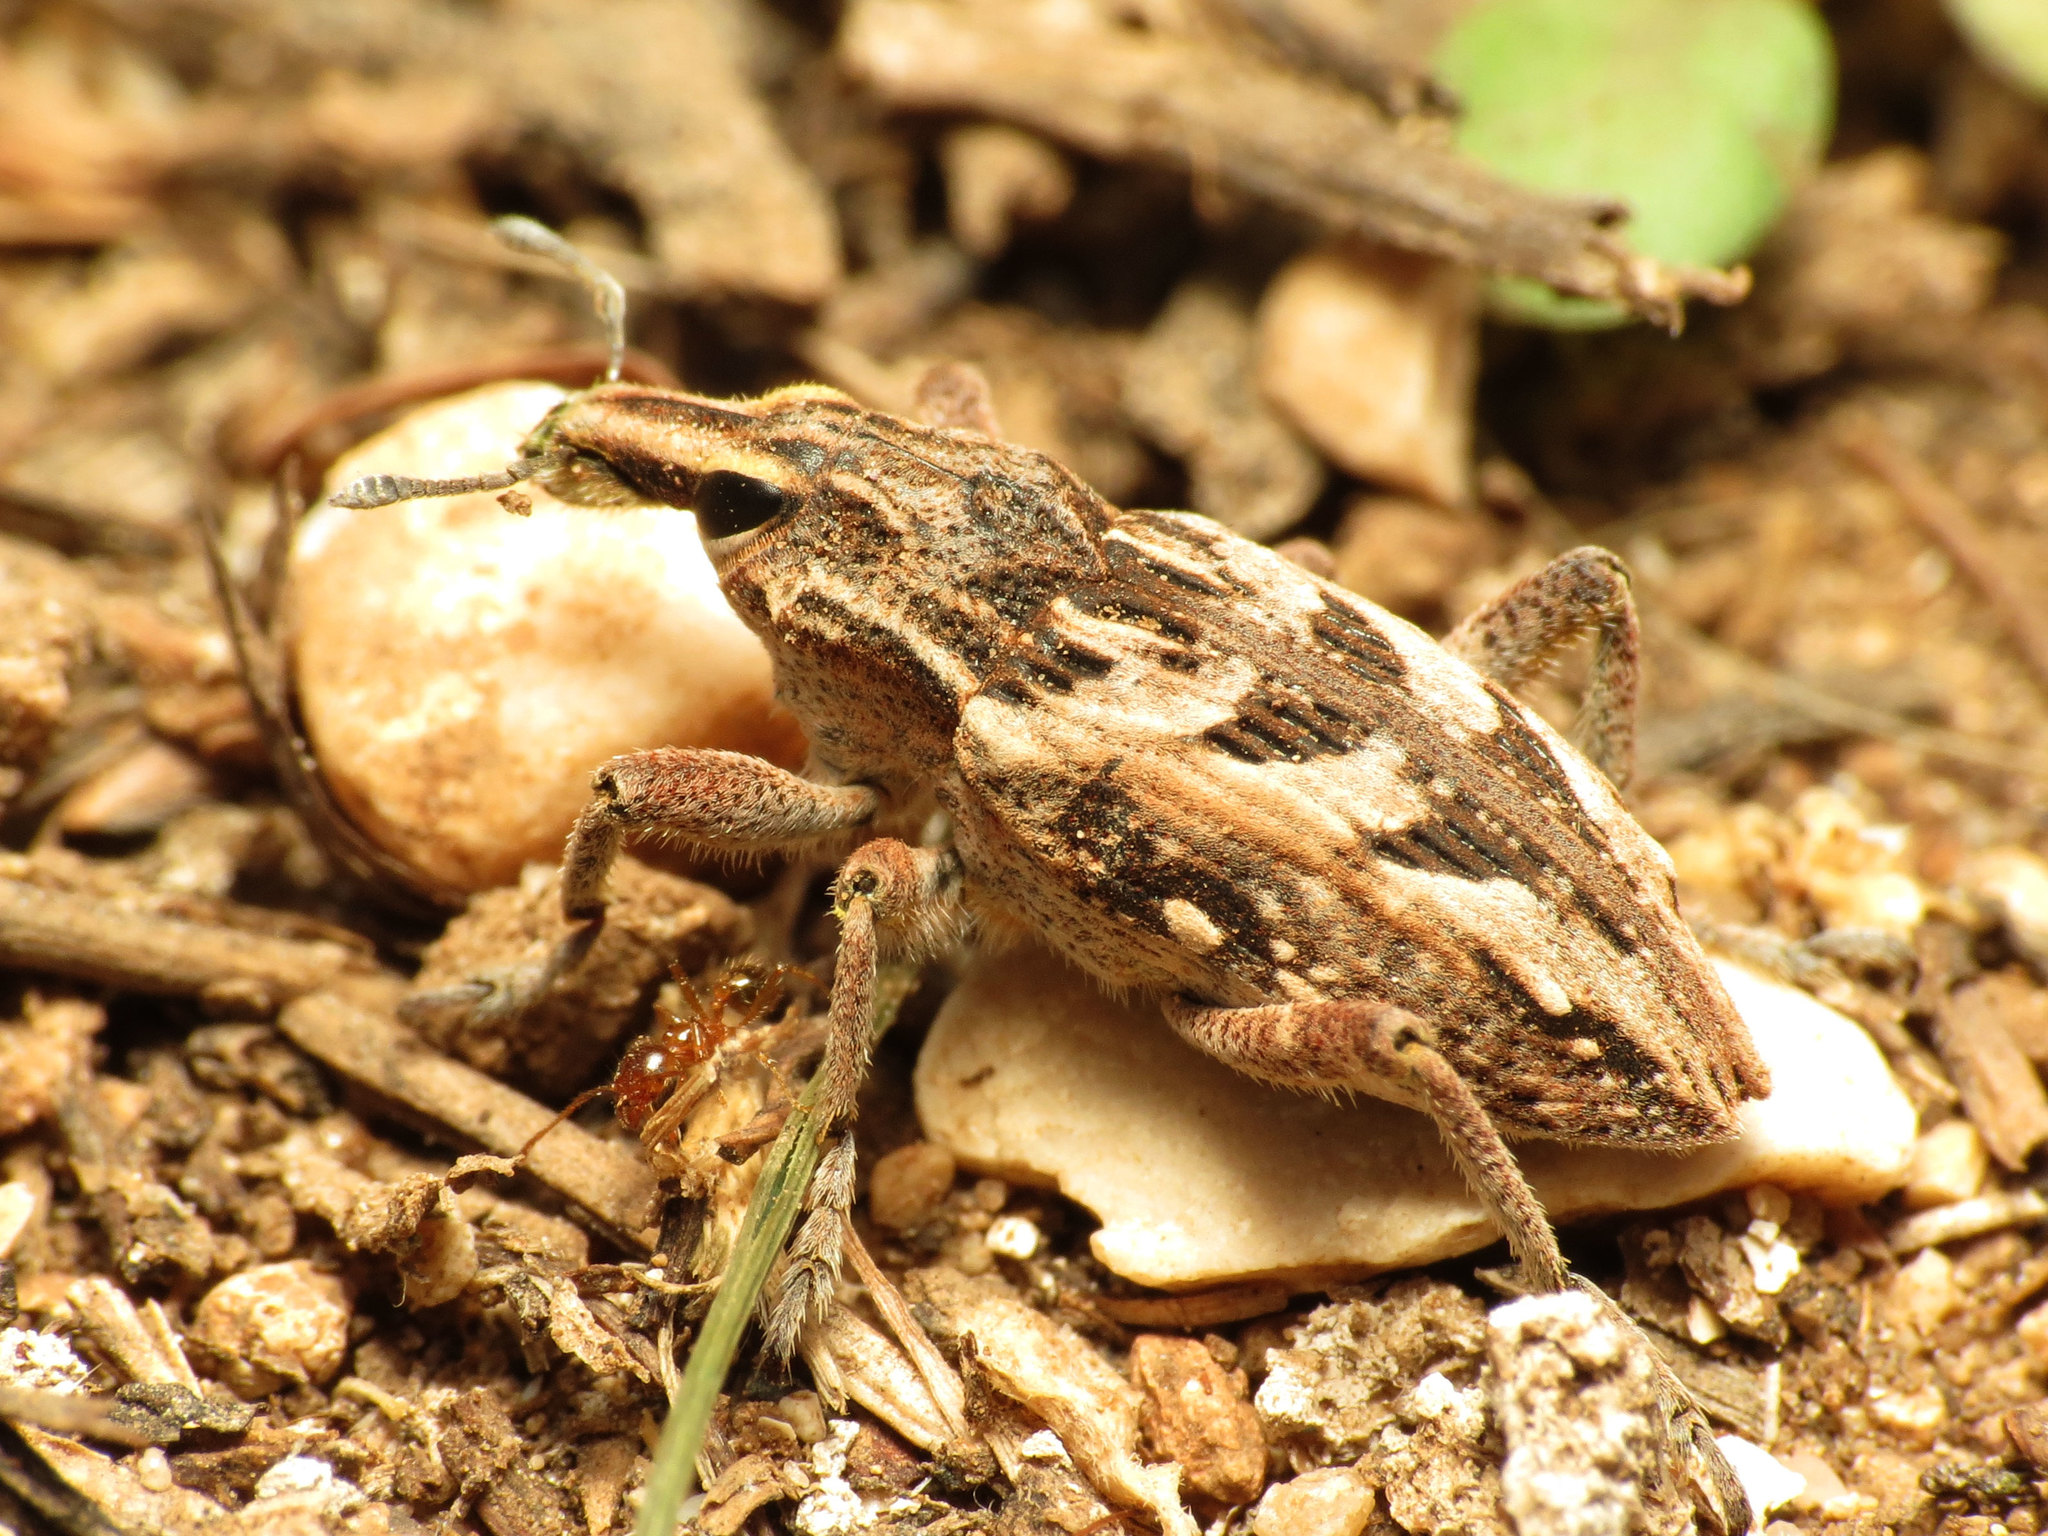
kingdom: Animalia
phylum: Arthropoda
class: Insecta
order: Coleoptera
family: Curculionidae
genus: Coniocleonus
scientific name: Coniocleonus excoriatus
